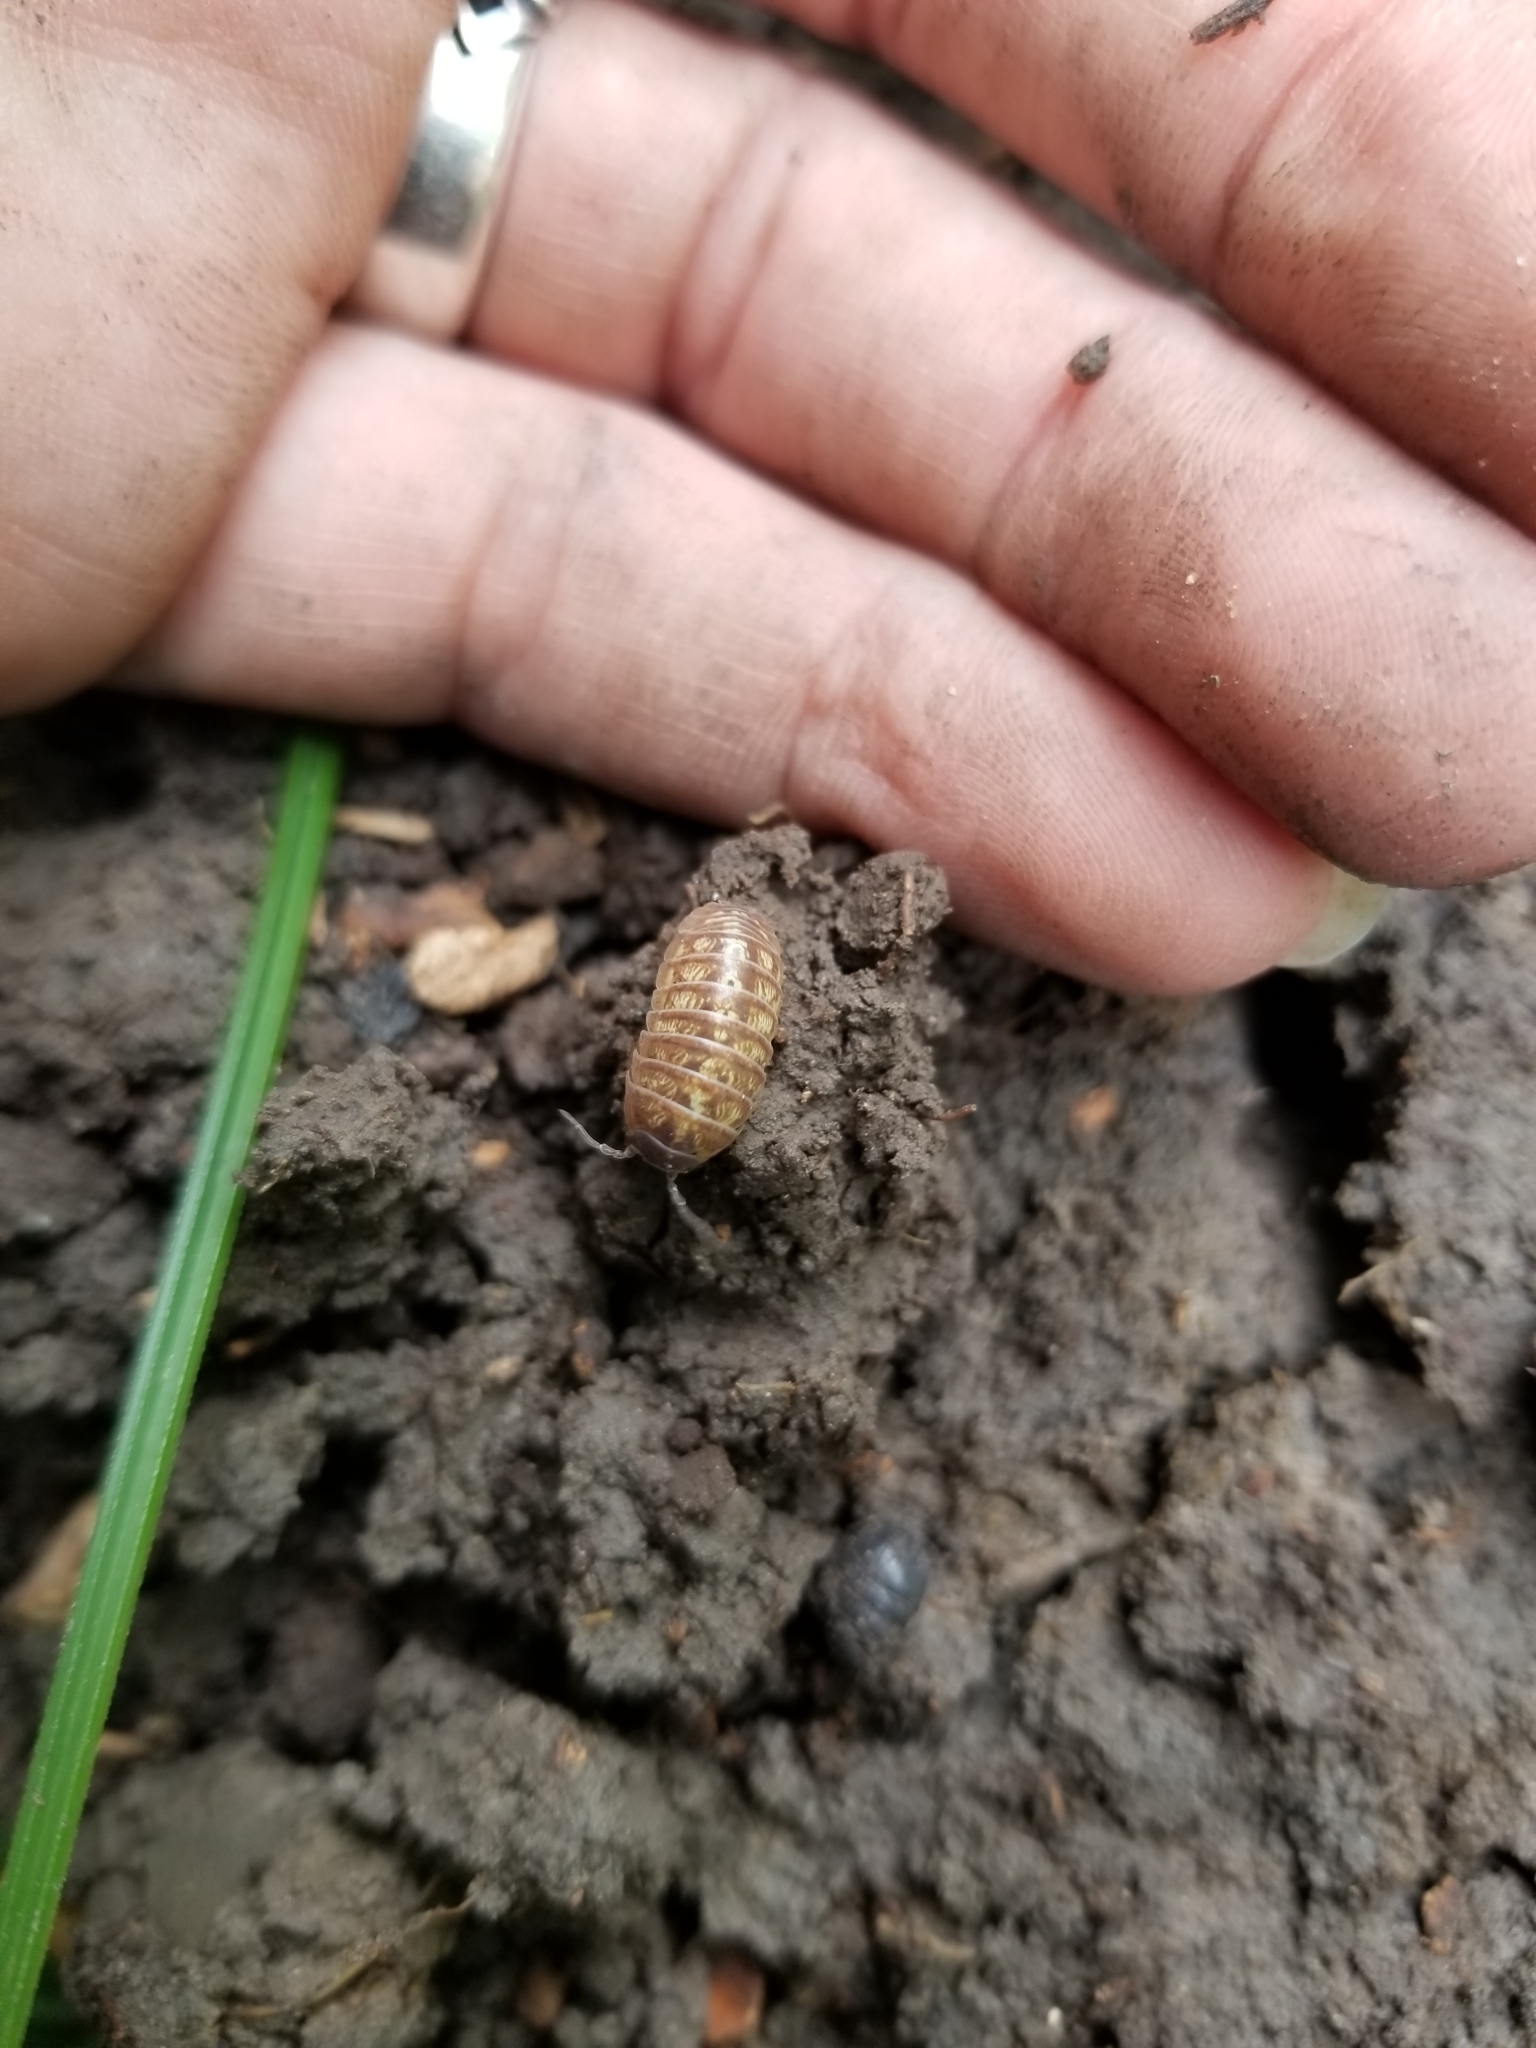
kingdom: Animalia
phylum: Arthropoda
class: Malacostraca
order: Isopoda
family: Armadillidiidae
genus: Armadillidium
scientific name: Armadillidium vulgare
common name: Common pill woodlouse
